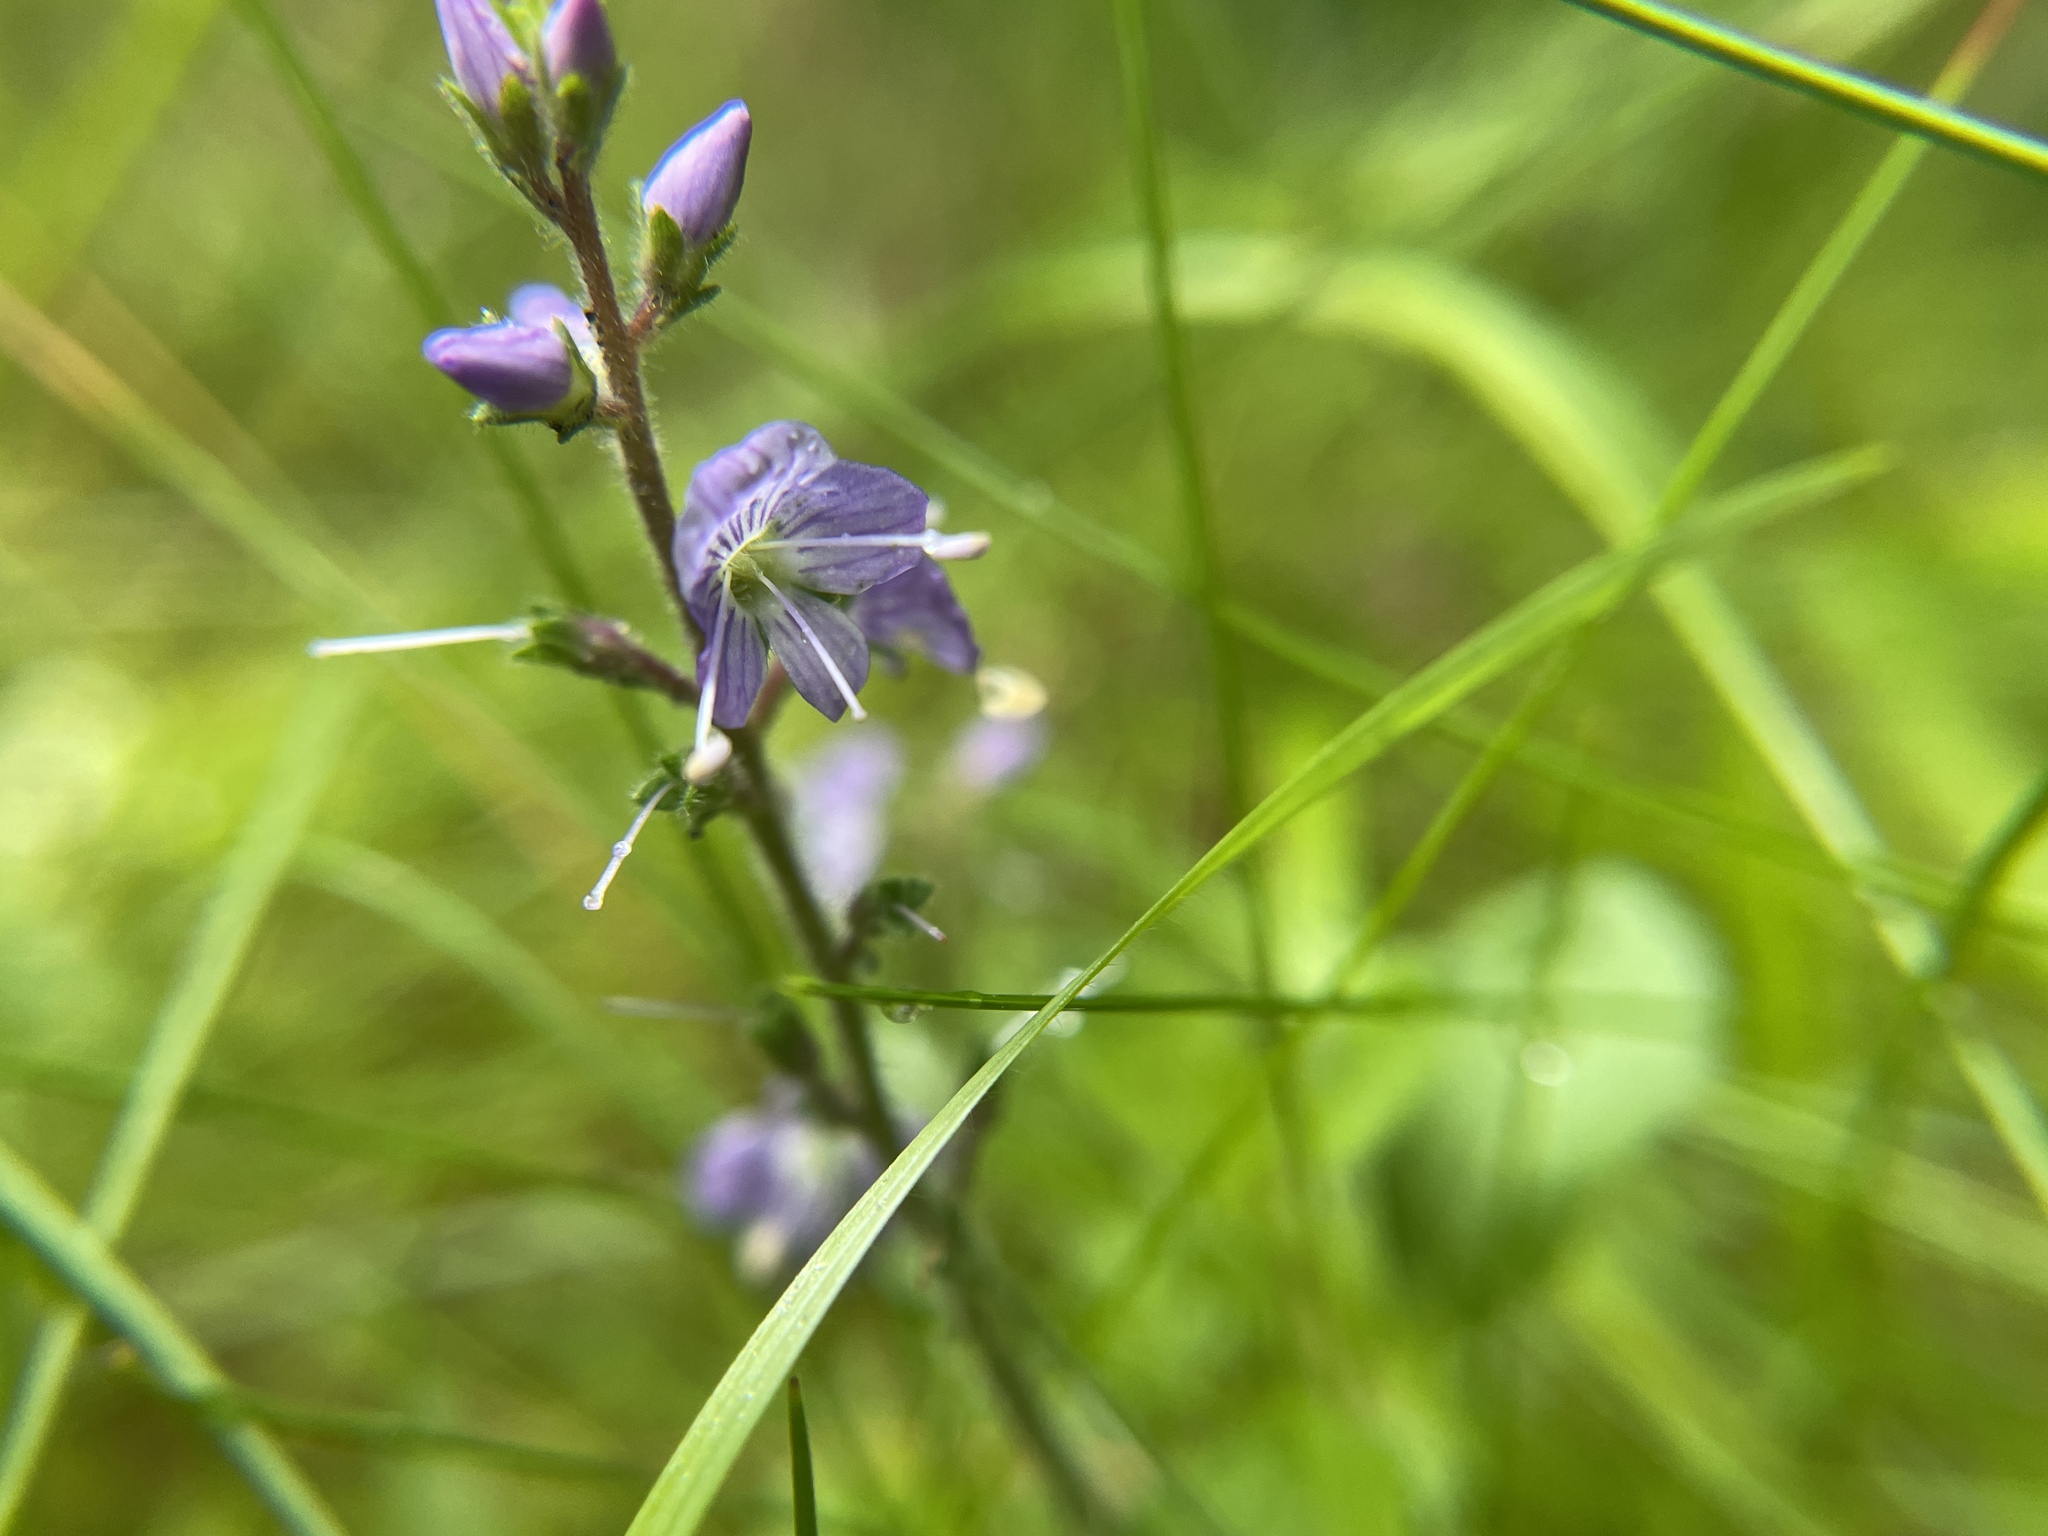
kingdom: Plantae
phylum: Tracheophyta
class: Magnoliopsida
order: Lamiales
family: Plantaginaceae
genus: Veronica
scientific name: Veronica officinalis
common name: Common speedwell
